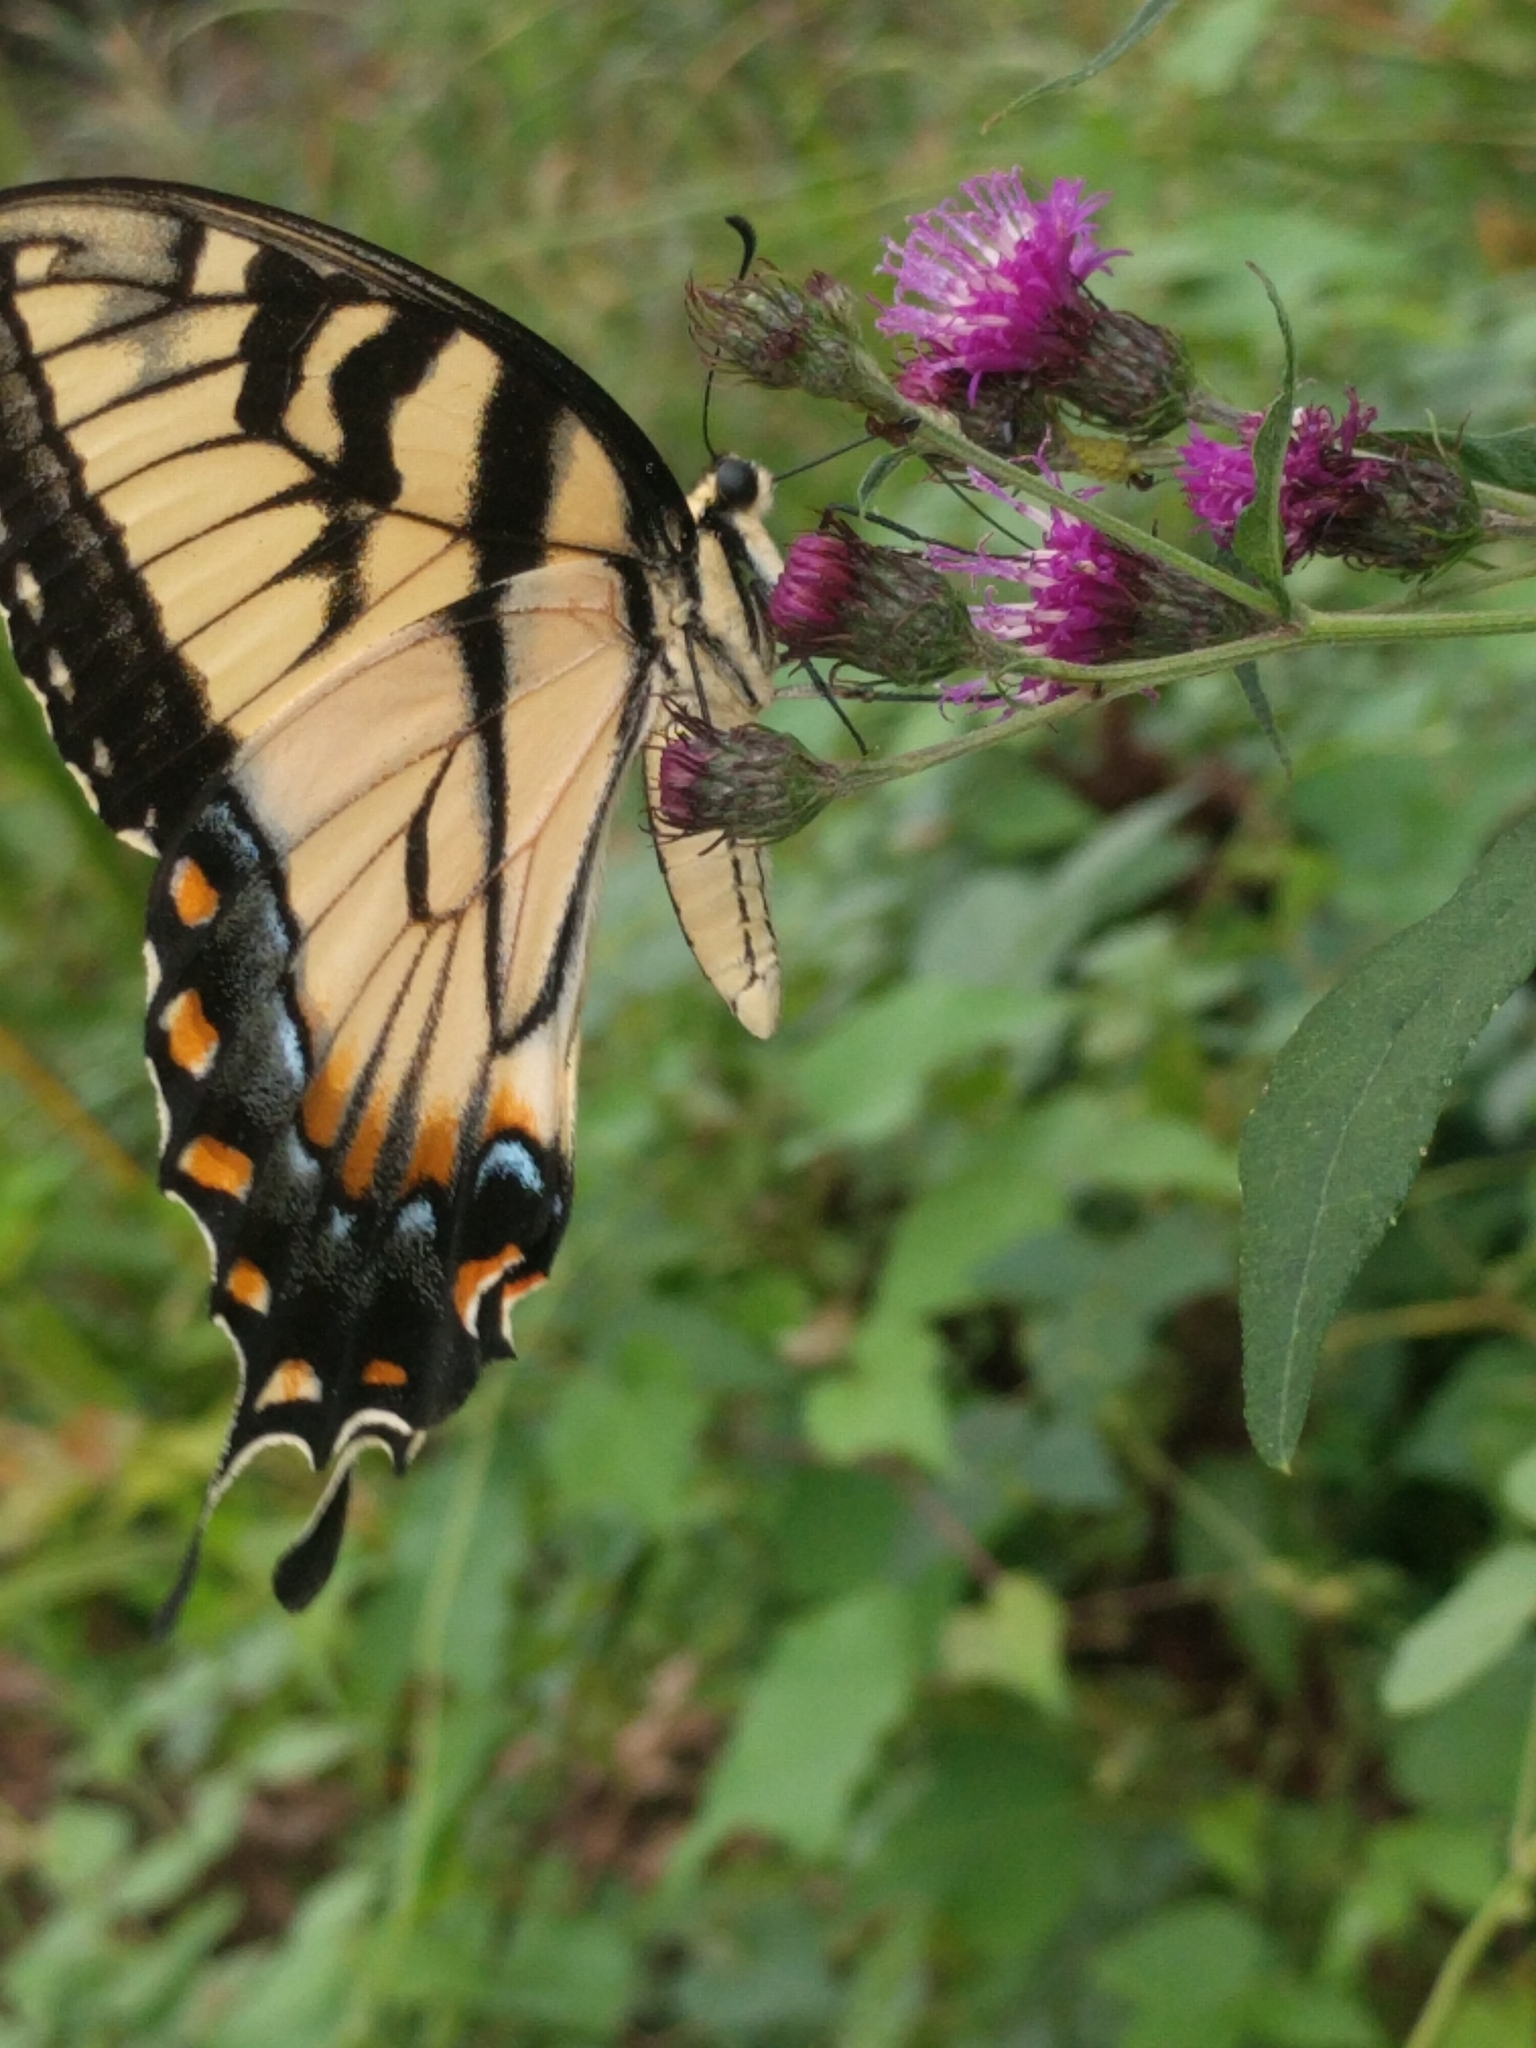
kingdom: Animalia
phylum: Arthropoda
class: Insecta
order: Lepidoptera
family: Papilionidae
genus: Papilio
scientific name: Papilio glaucus
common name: Tiger swallowtail
